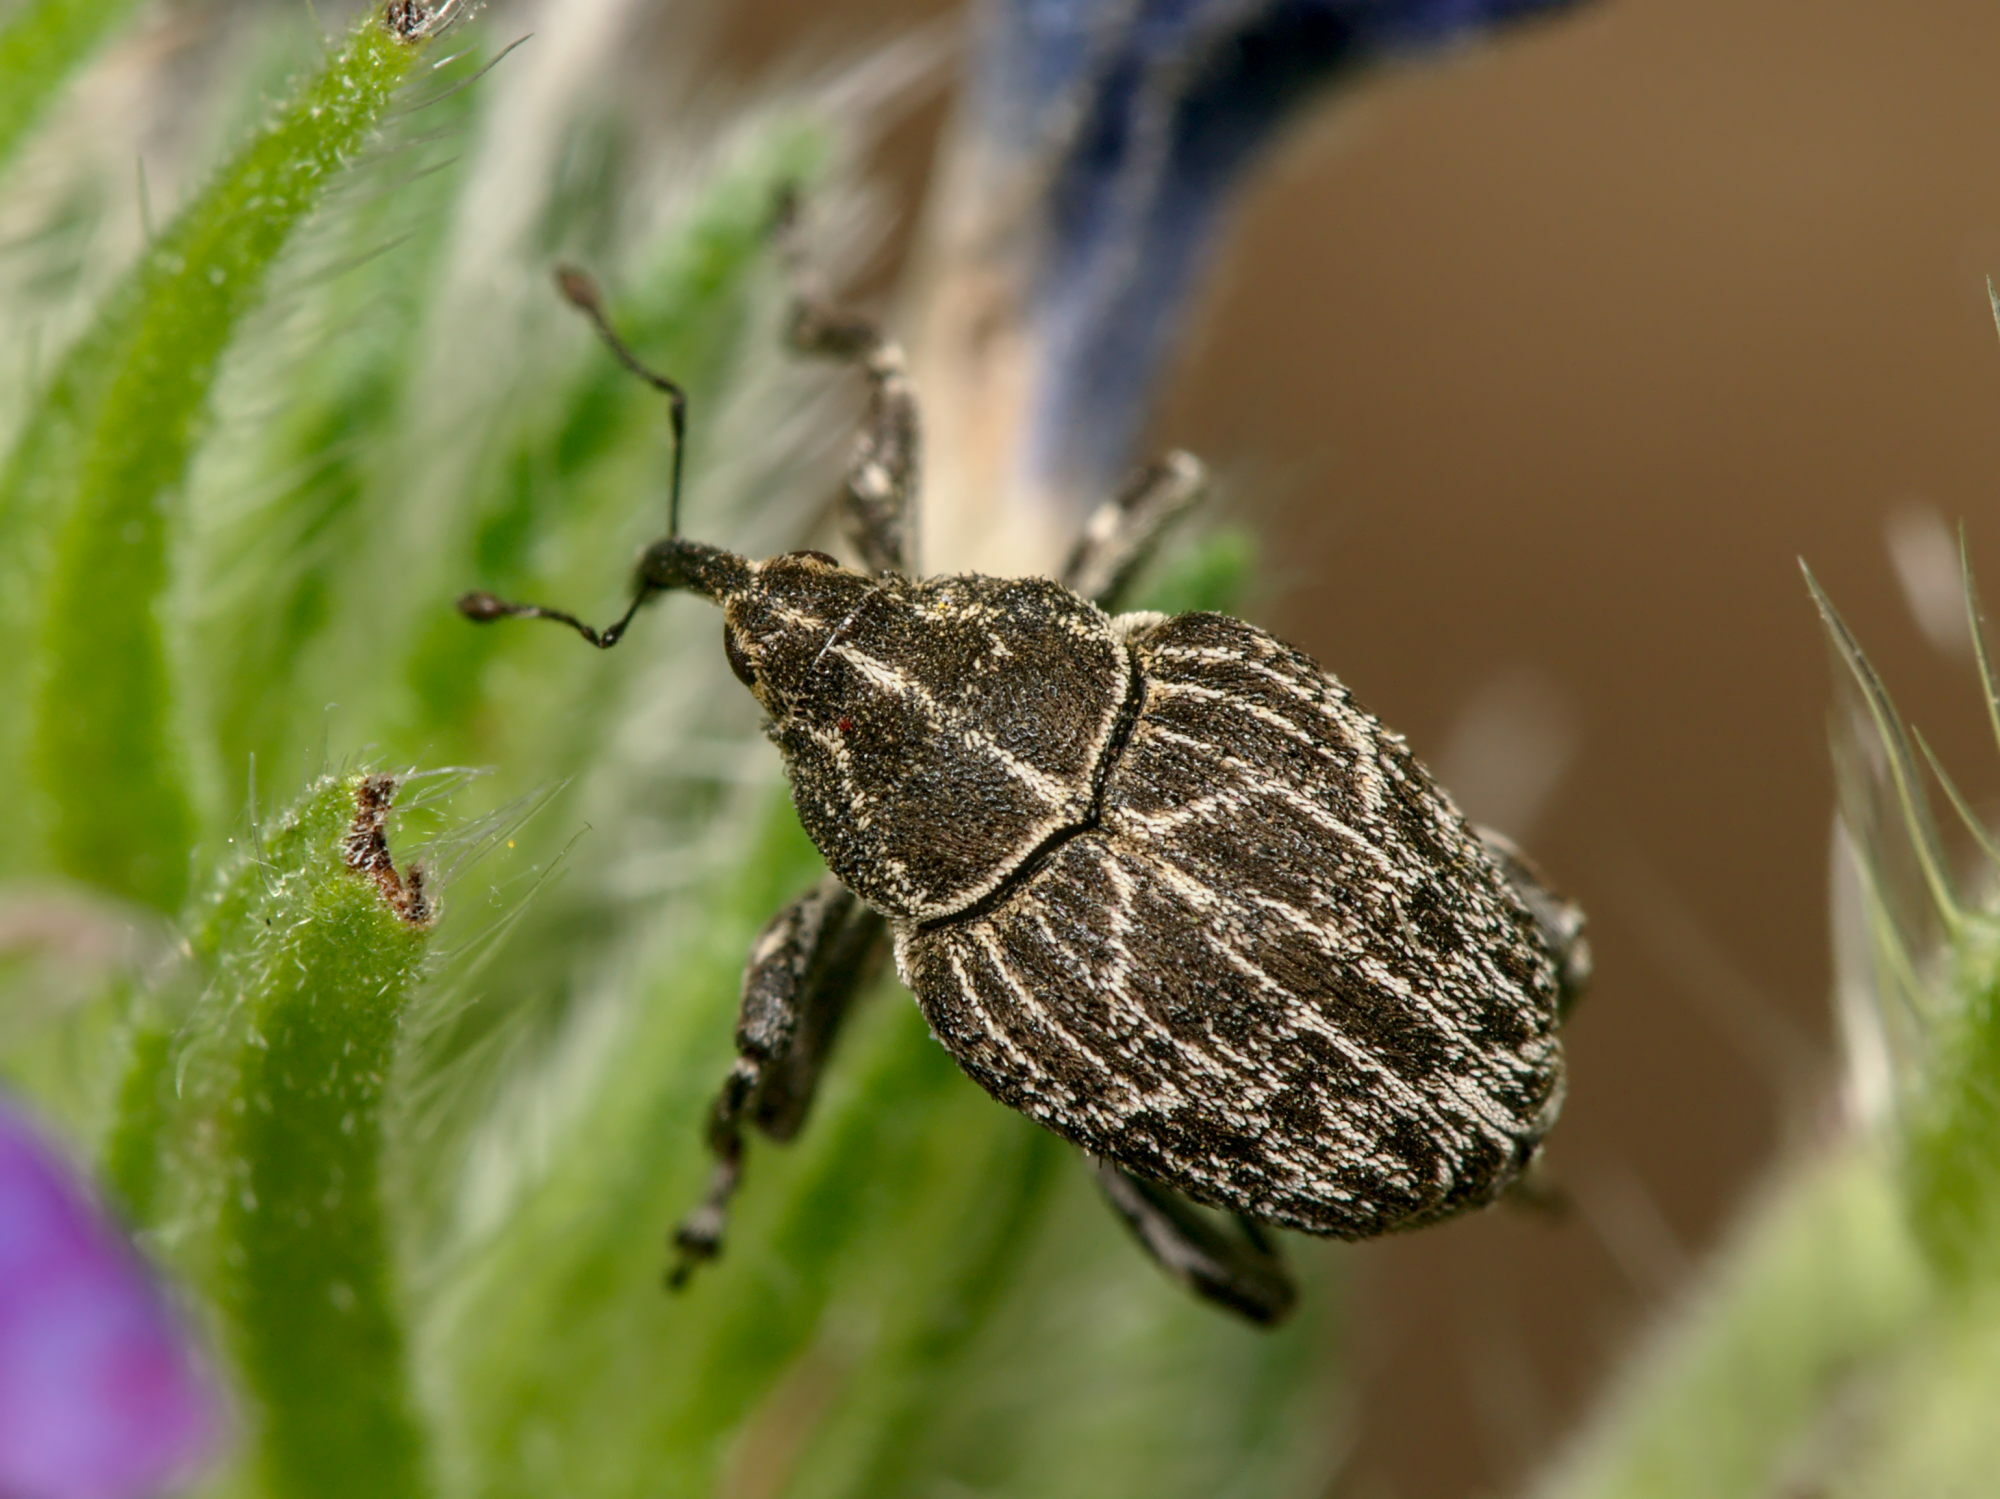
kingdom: Animalia
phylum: Arthropoda
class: Insecta
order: Coleoptera
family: Curculionidae
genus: Mogulones
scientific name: Mogulones geographicus
